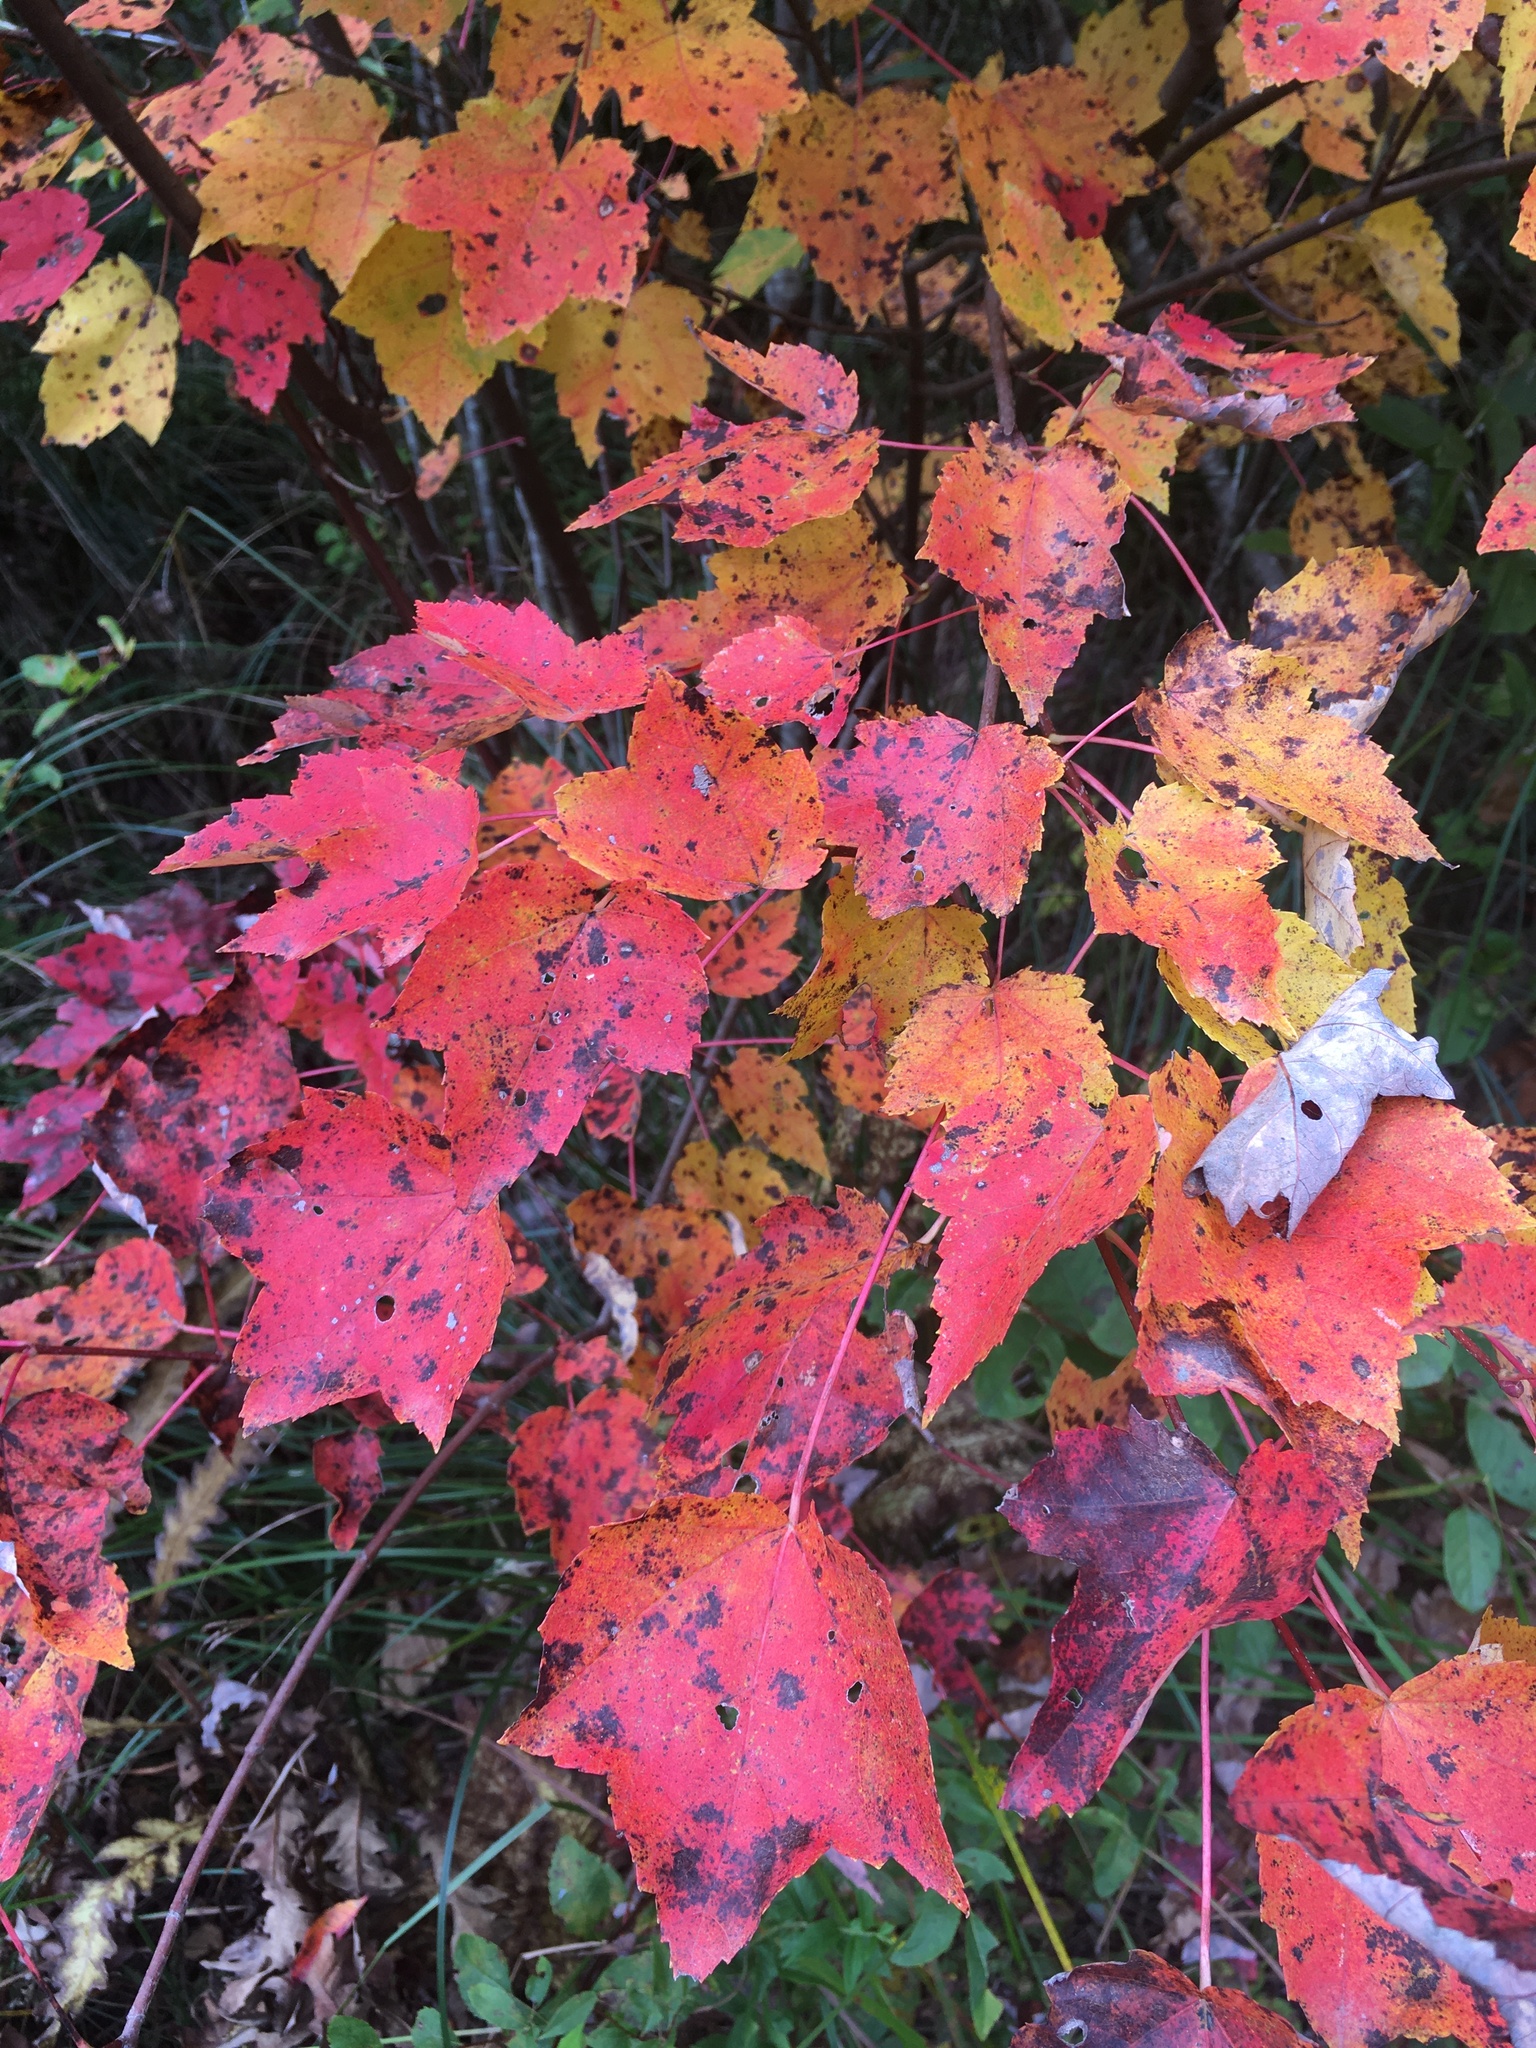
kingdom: Plantae
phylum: Tracheophyta
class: Magnoliopsida
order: Sapindales
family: Sapindaceae
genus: Acer
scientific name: Acer rubrum
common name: Red maple
